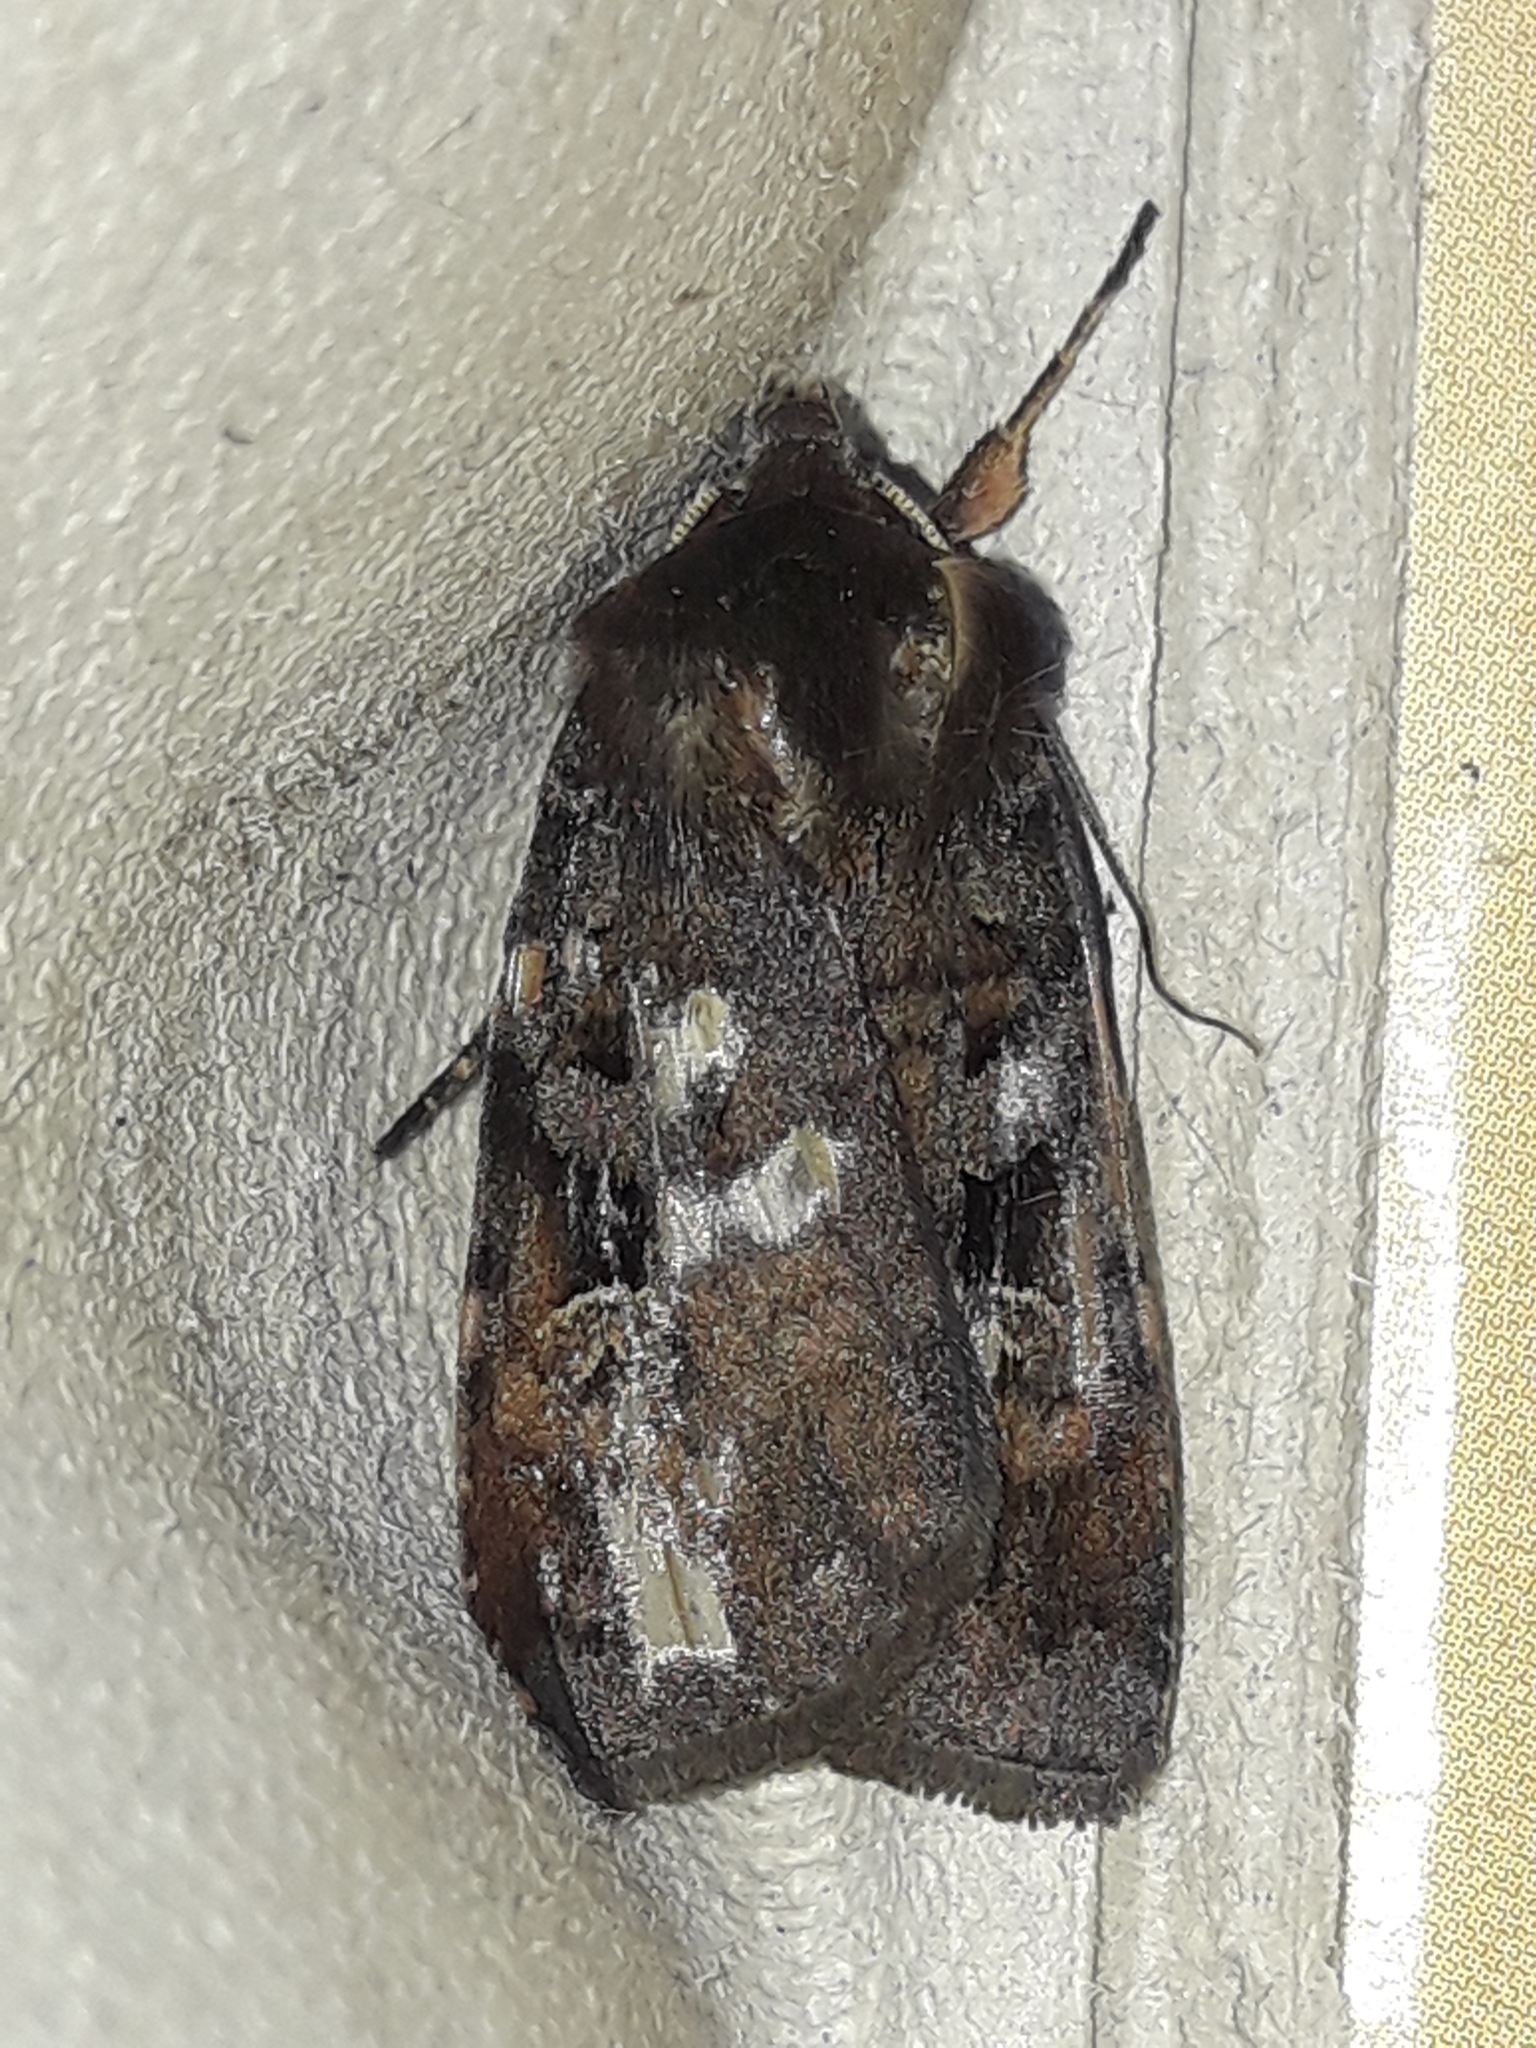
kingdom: Animalia
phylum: Arthropoda
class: Insecta
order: Lepidoptera
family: Noctuidae
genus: Diarsia
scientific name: Diarsia brunnea
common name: Purple clay
